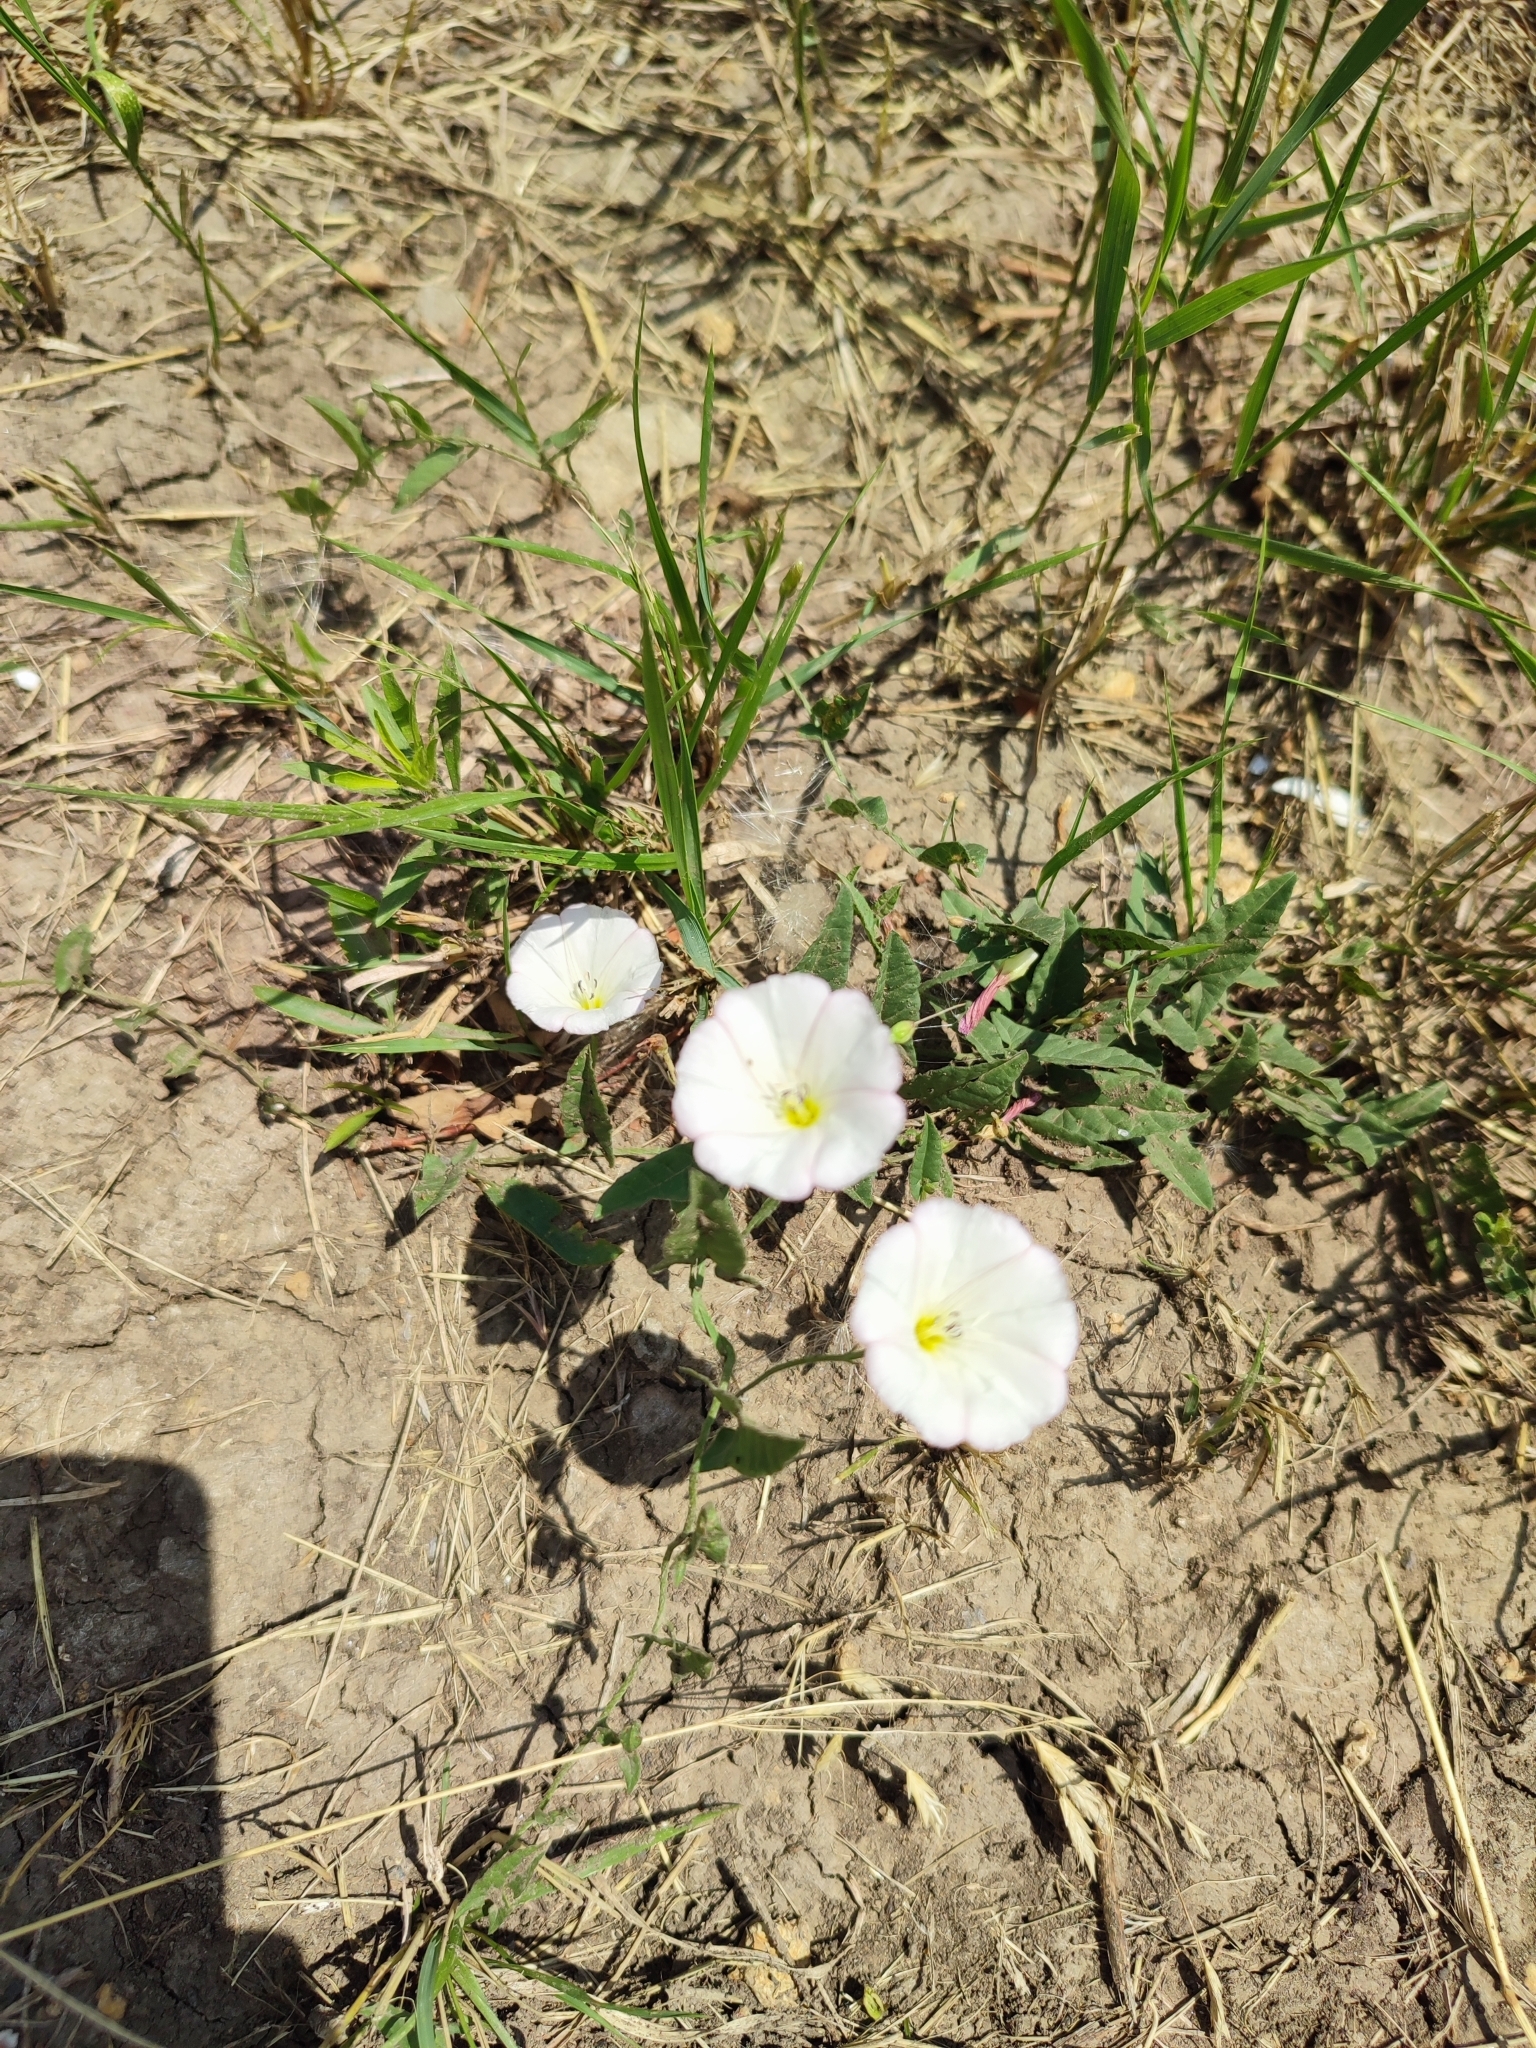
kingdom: Plantae
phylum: Tracheophyta
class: Magnoliopsida
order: Solanales
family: Convolvulaceae
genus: Convolvulus
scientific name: Convolvulus arvensis
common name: Field bindweed
